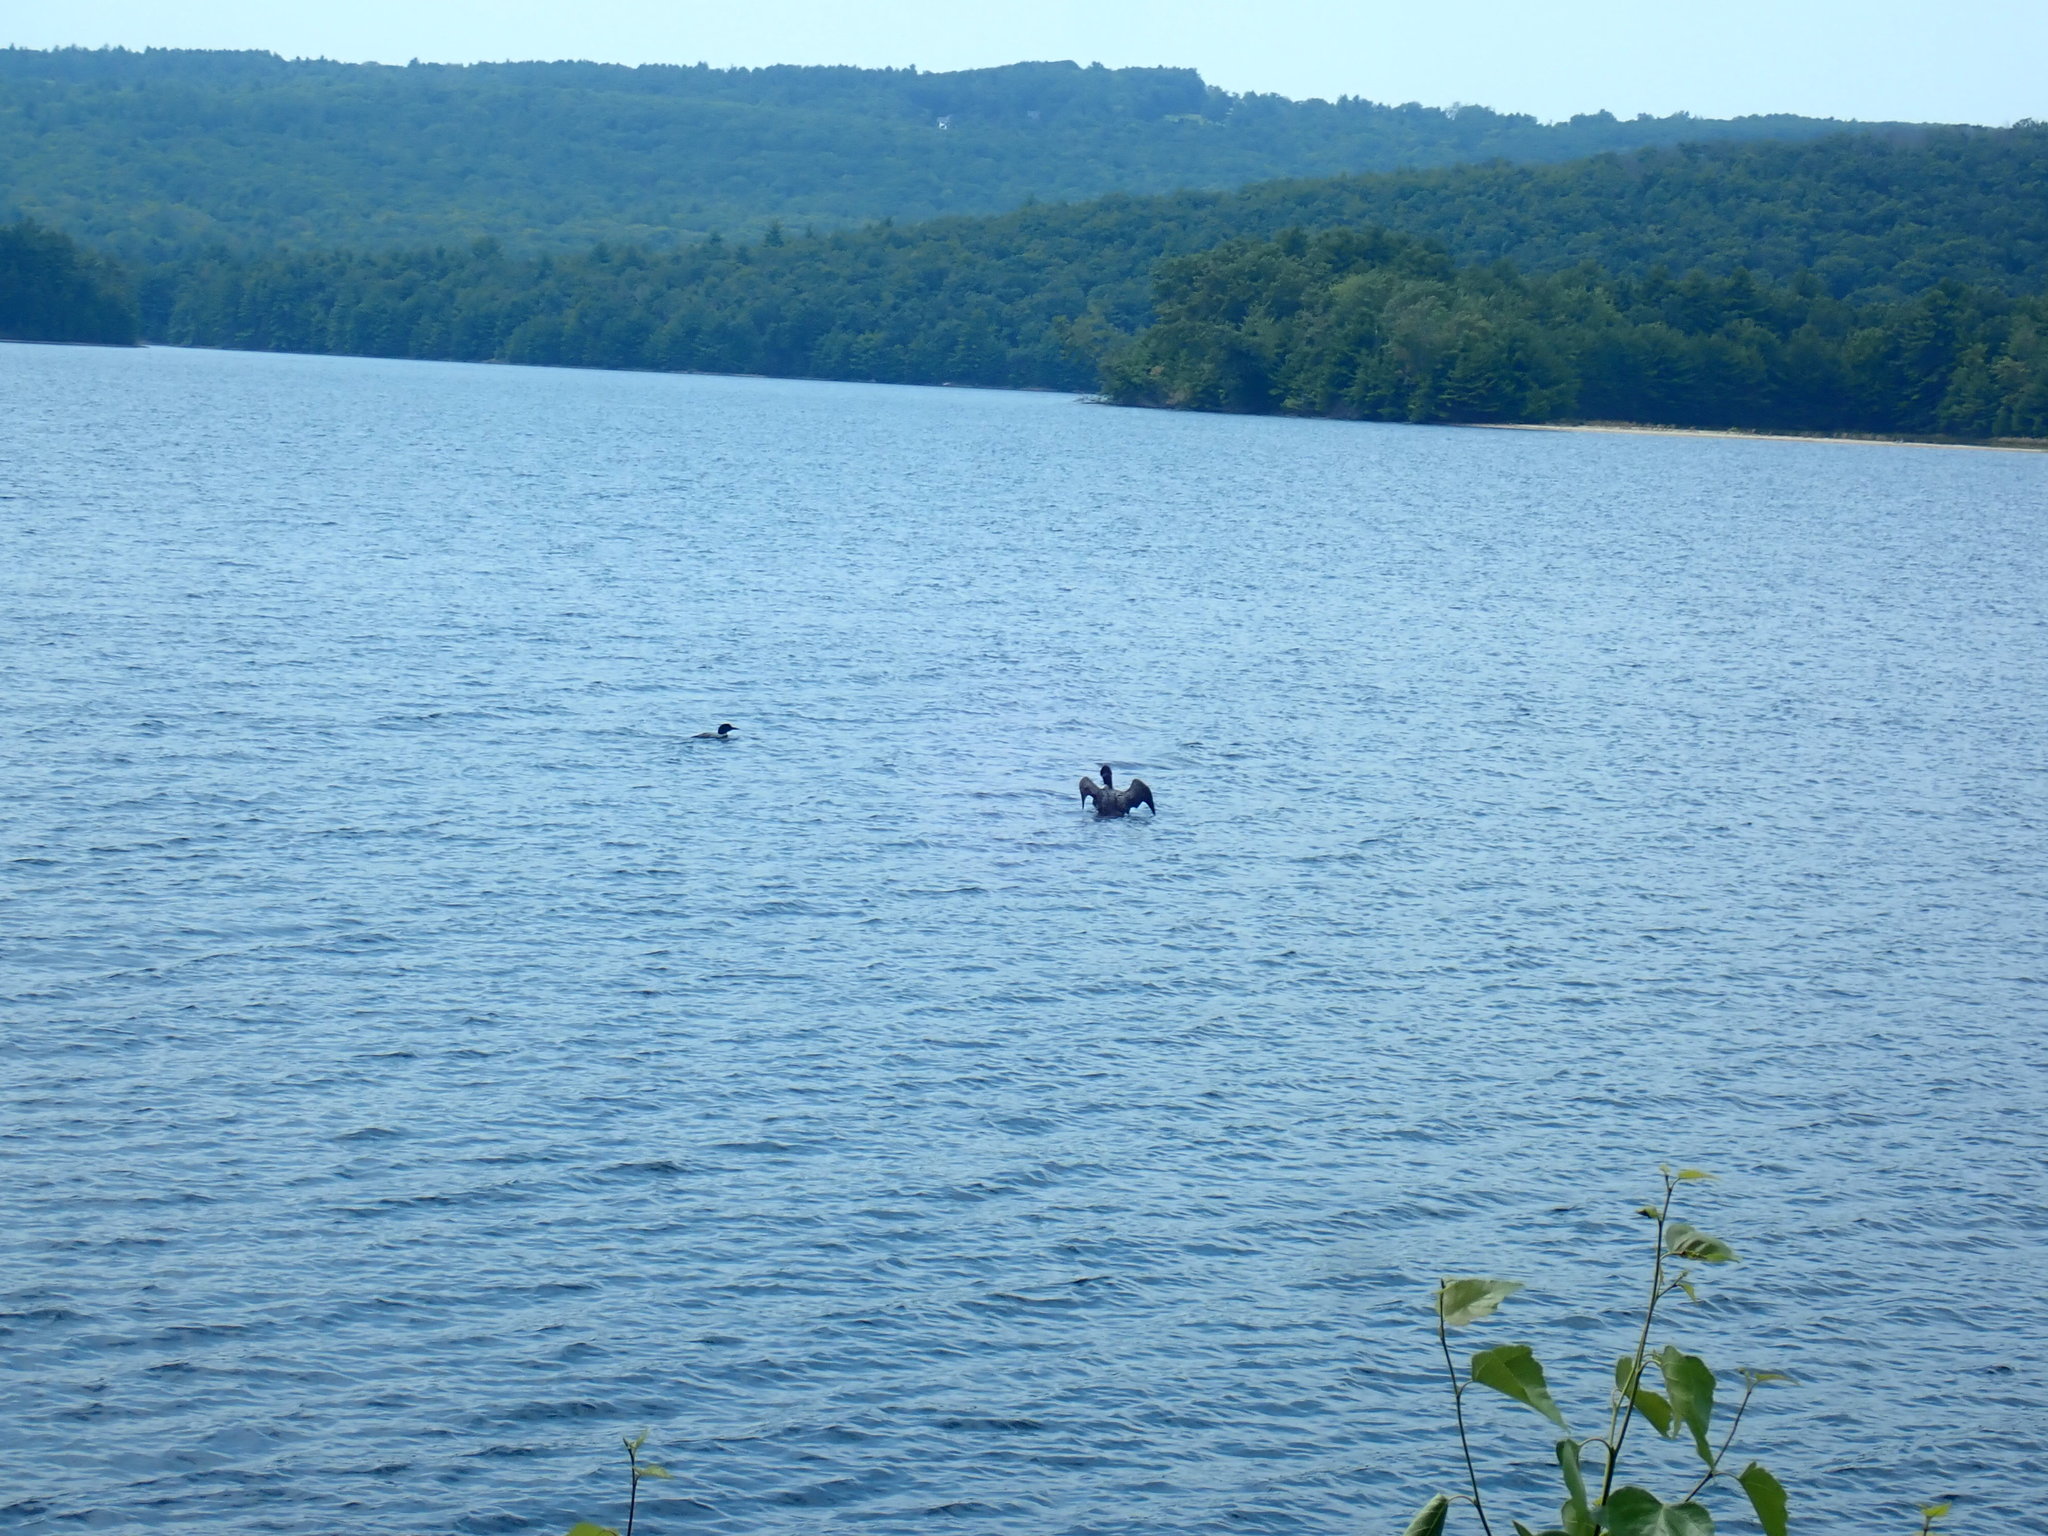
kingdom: Animalia
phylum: Chordata
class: Aves
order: Gaviiformes
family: Gaviidae
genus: Gavia
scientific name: Gavia immer
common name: Common loon
